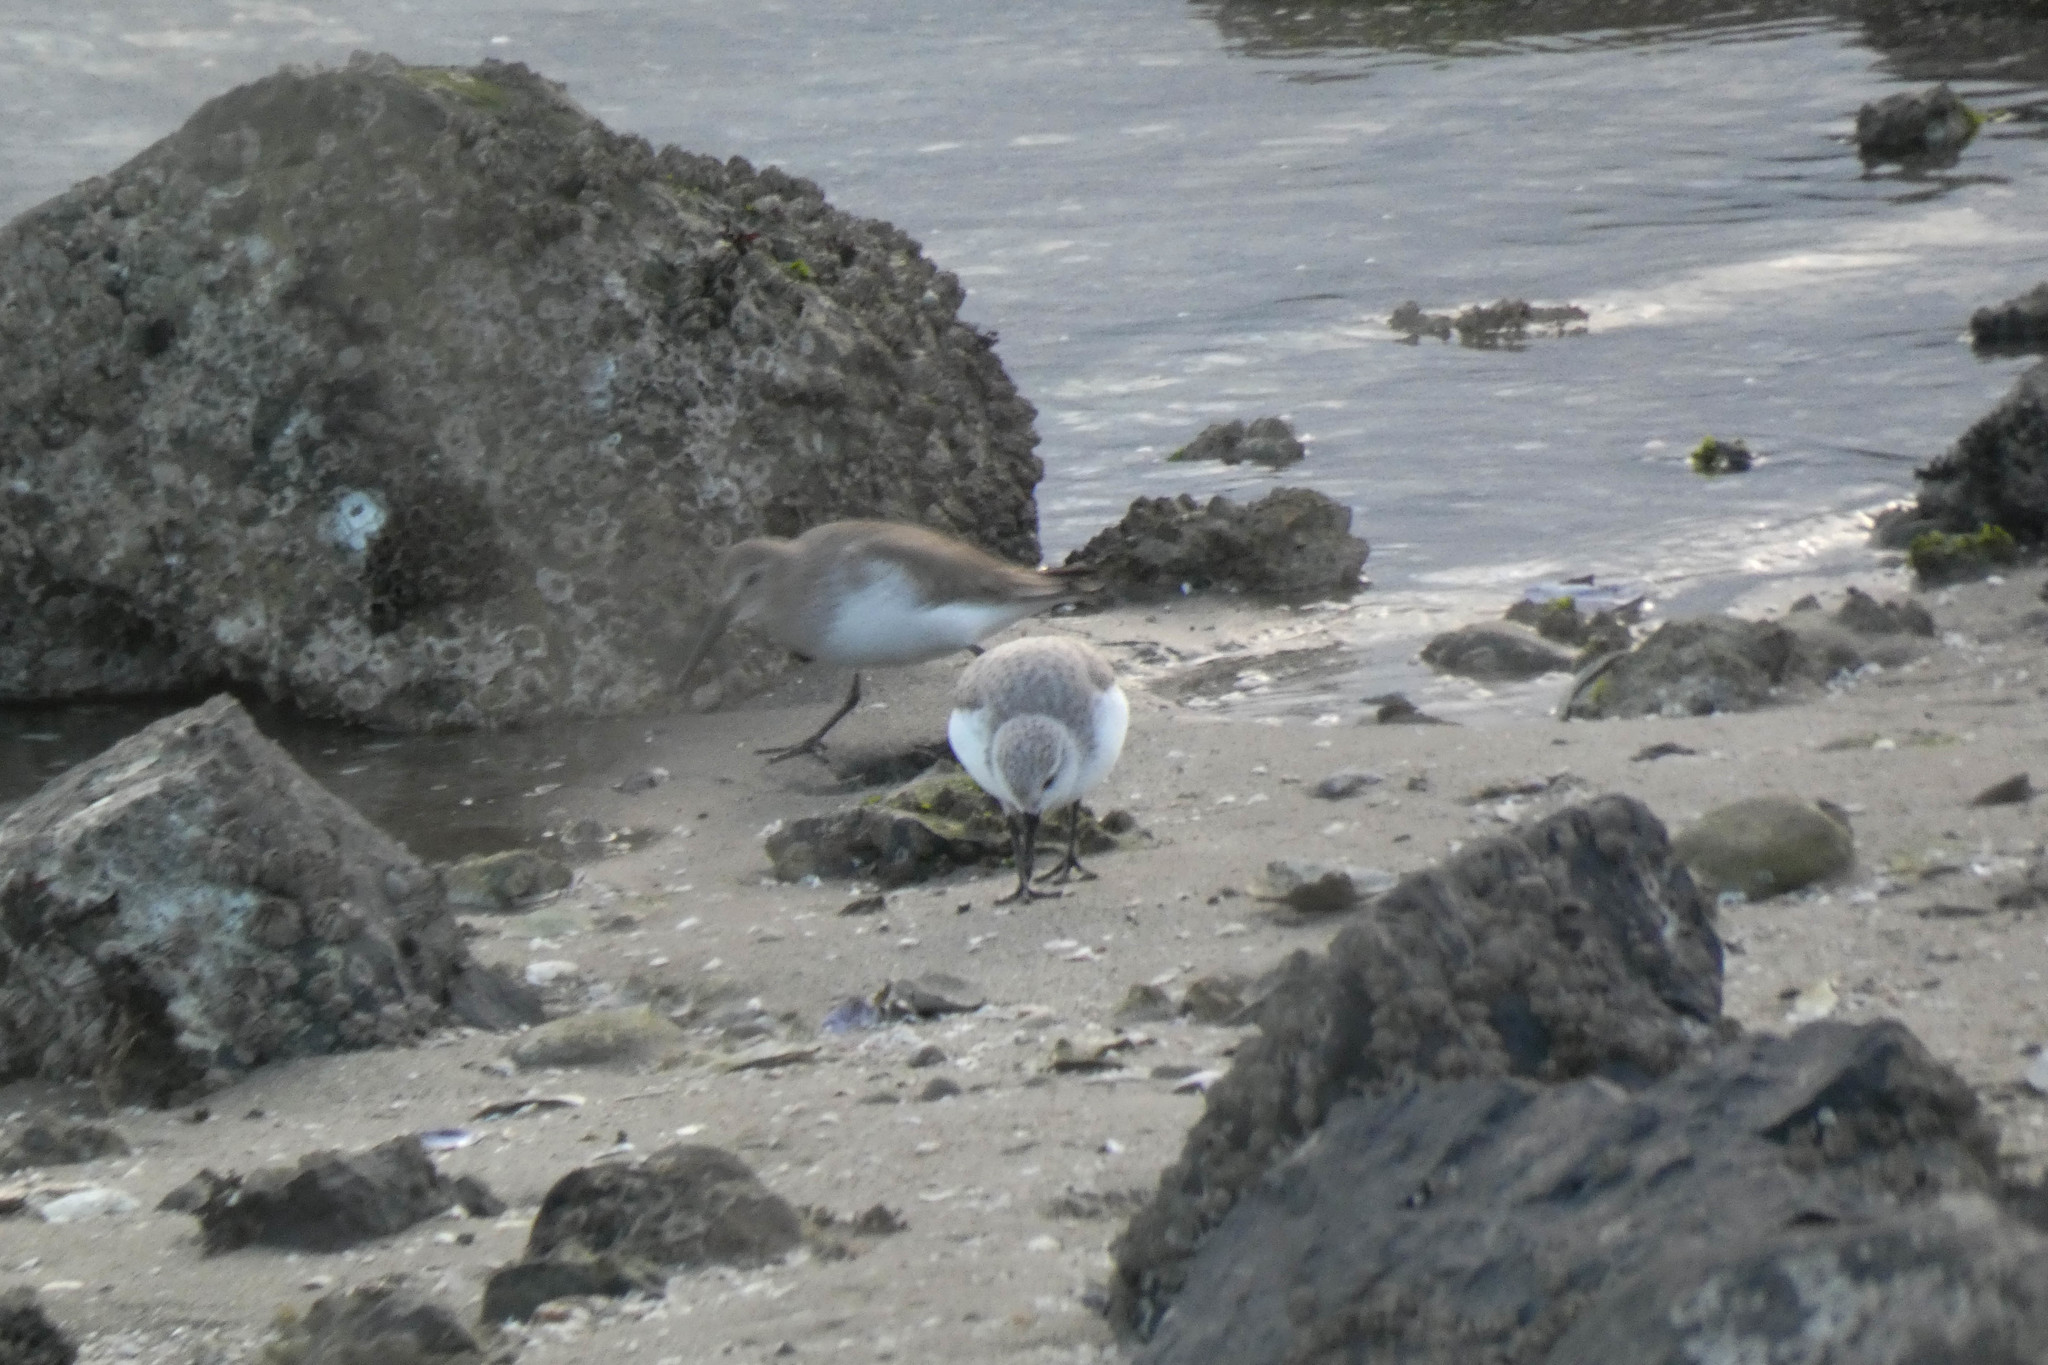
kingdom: Animalia
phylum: Chordata
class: Aves
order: Charadriiformes
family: Scolopacidae
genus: Calidris
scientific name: Calidris alba
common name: Sanderling
